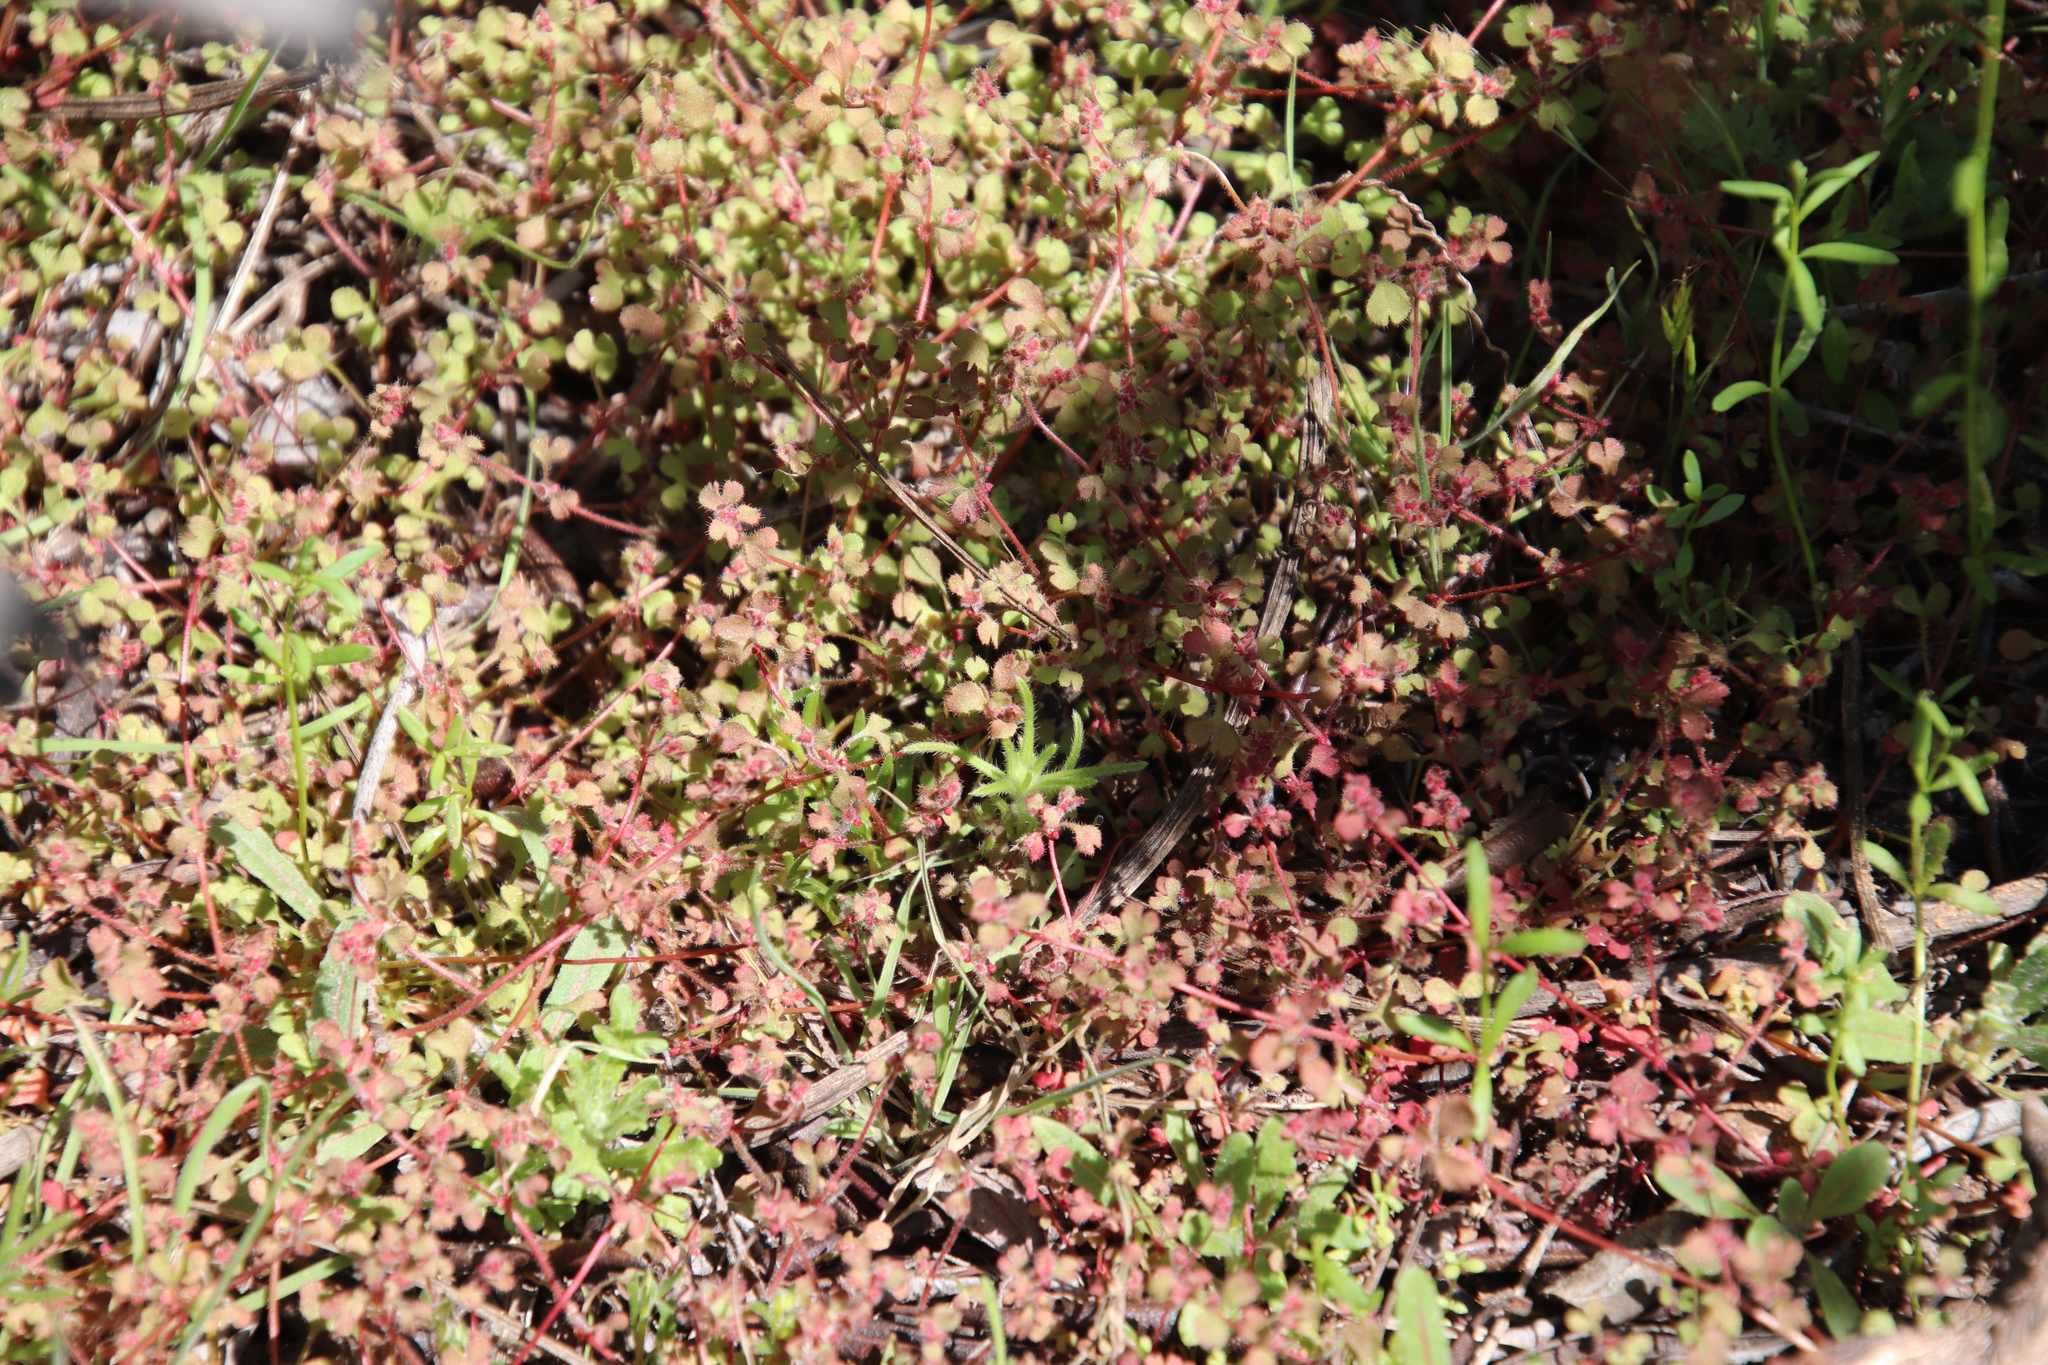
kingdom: Plantae
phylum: Tracheophyta
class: Magnoliopsida
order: Caryophyllales
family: Polygonaceae
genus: Pterostegia
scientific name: Pterostegia drymarioides
